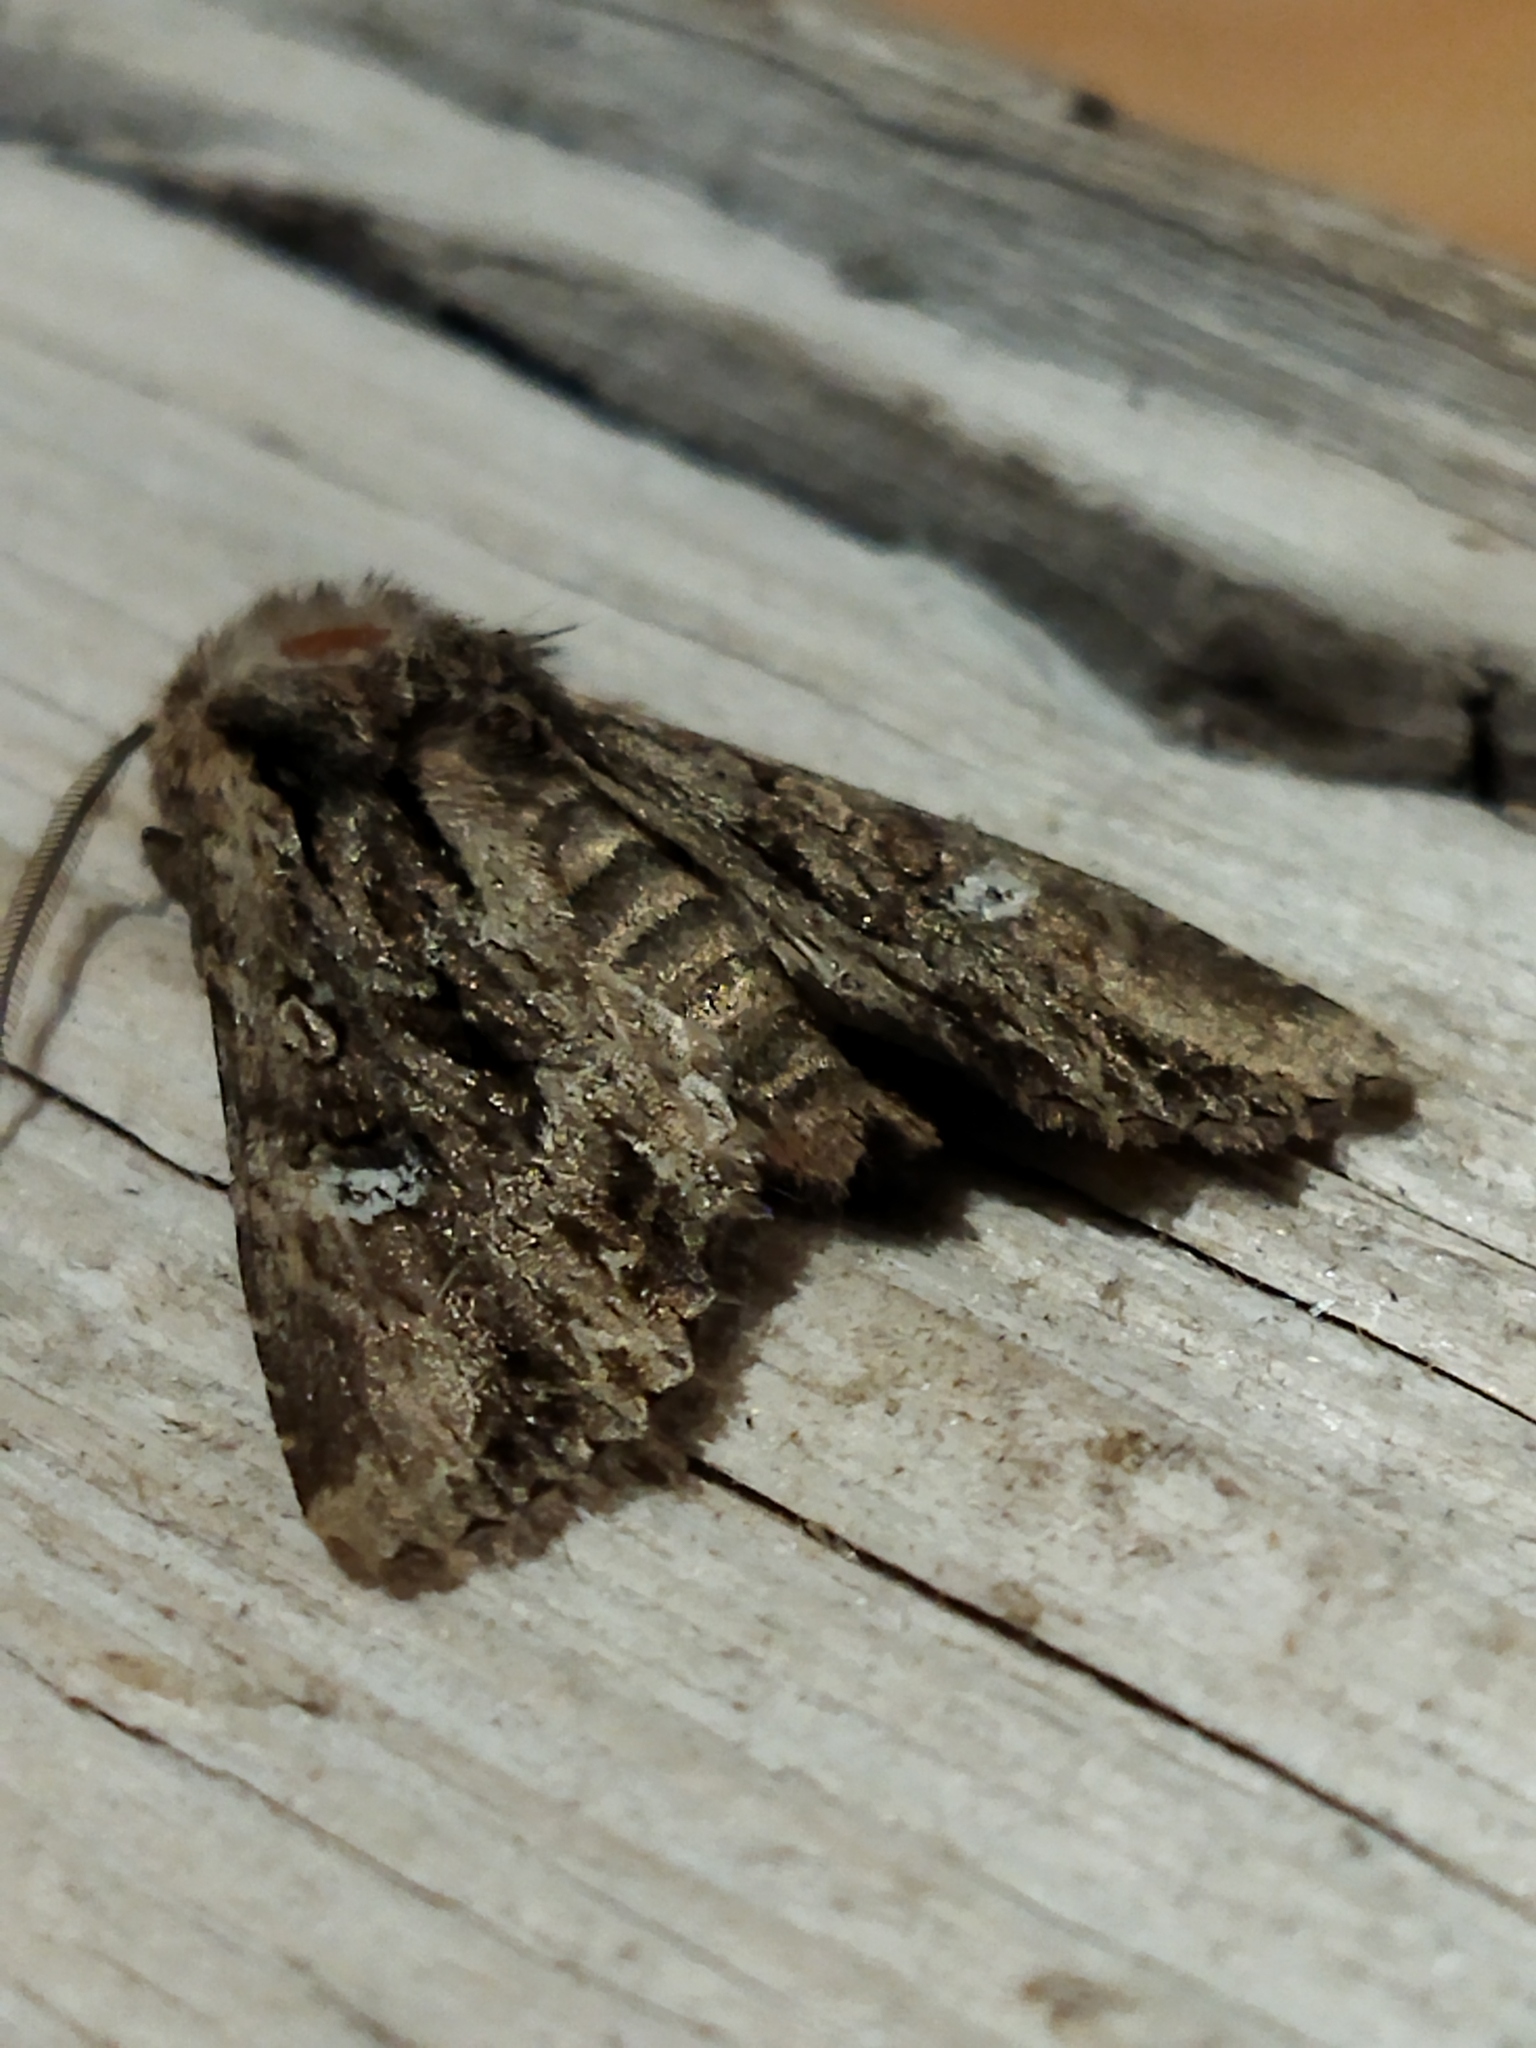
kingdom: Animalia
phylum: Arthropoda
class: Insecta
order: Lepidoptera
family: Noctuidae
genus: Polymixis
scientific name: Polymixis trisignata
